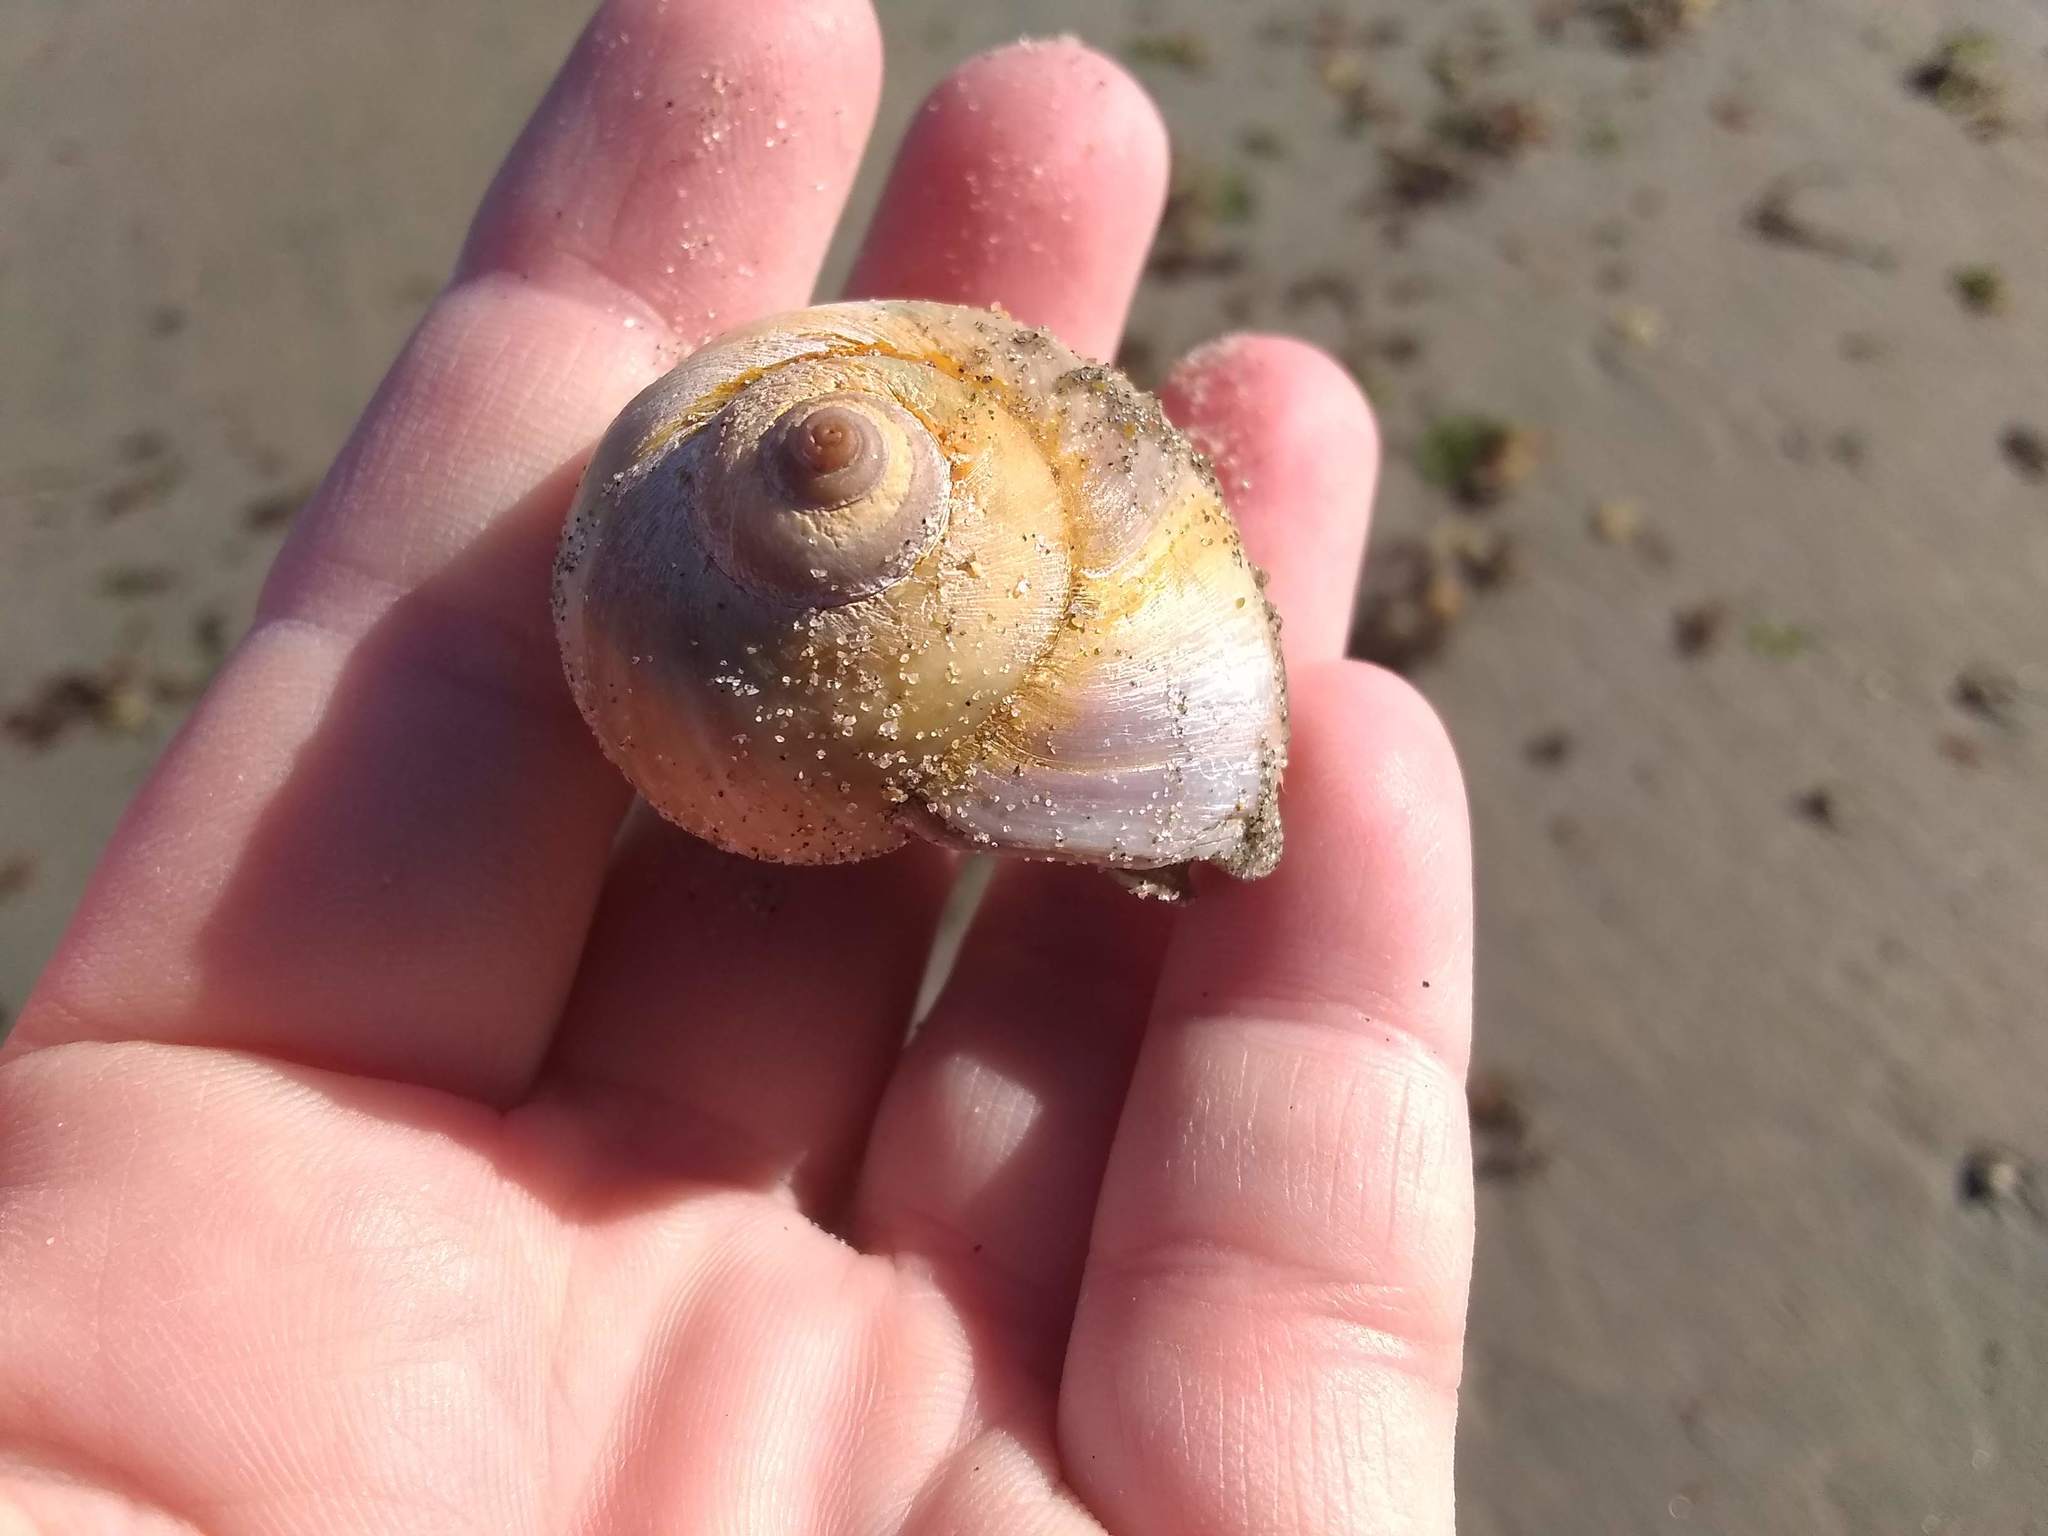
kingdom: Animalia
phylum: Mollusca
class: Gastropoda
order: Littorinimorpha
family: Naticidae
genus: Euspira
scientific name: Euspira heros
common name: Common northern moonsnail
